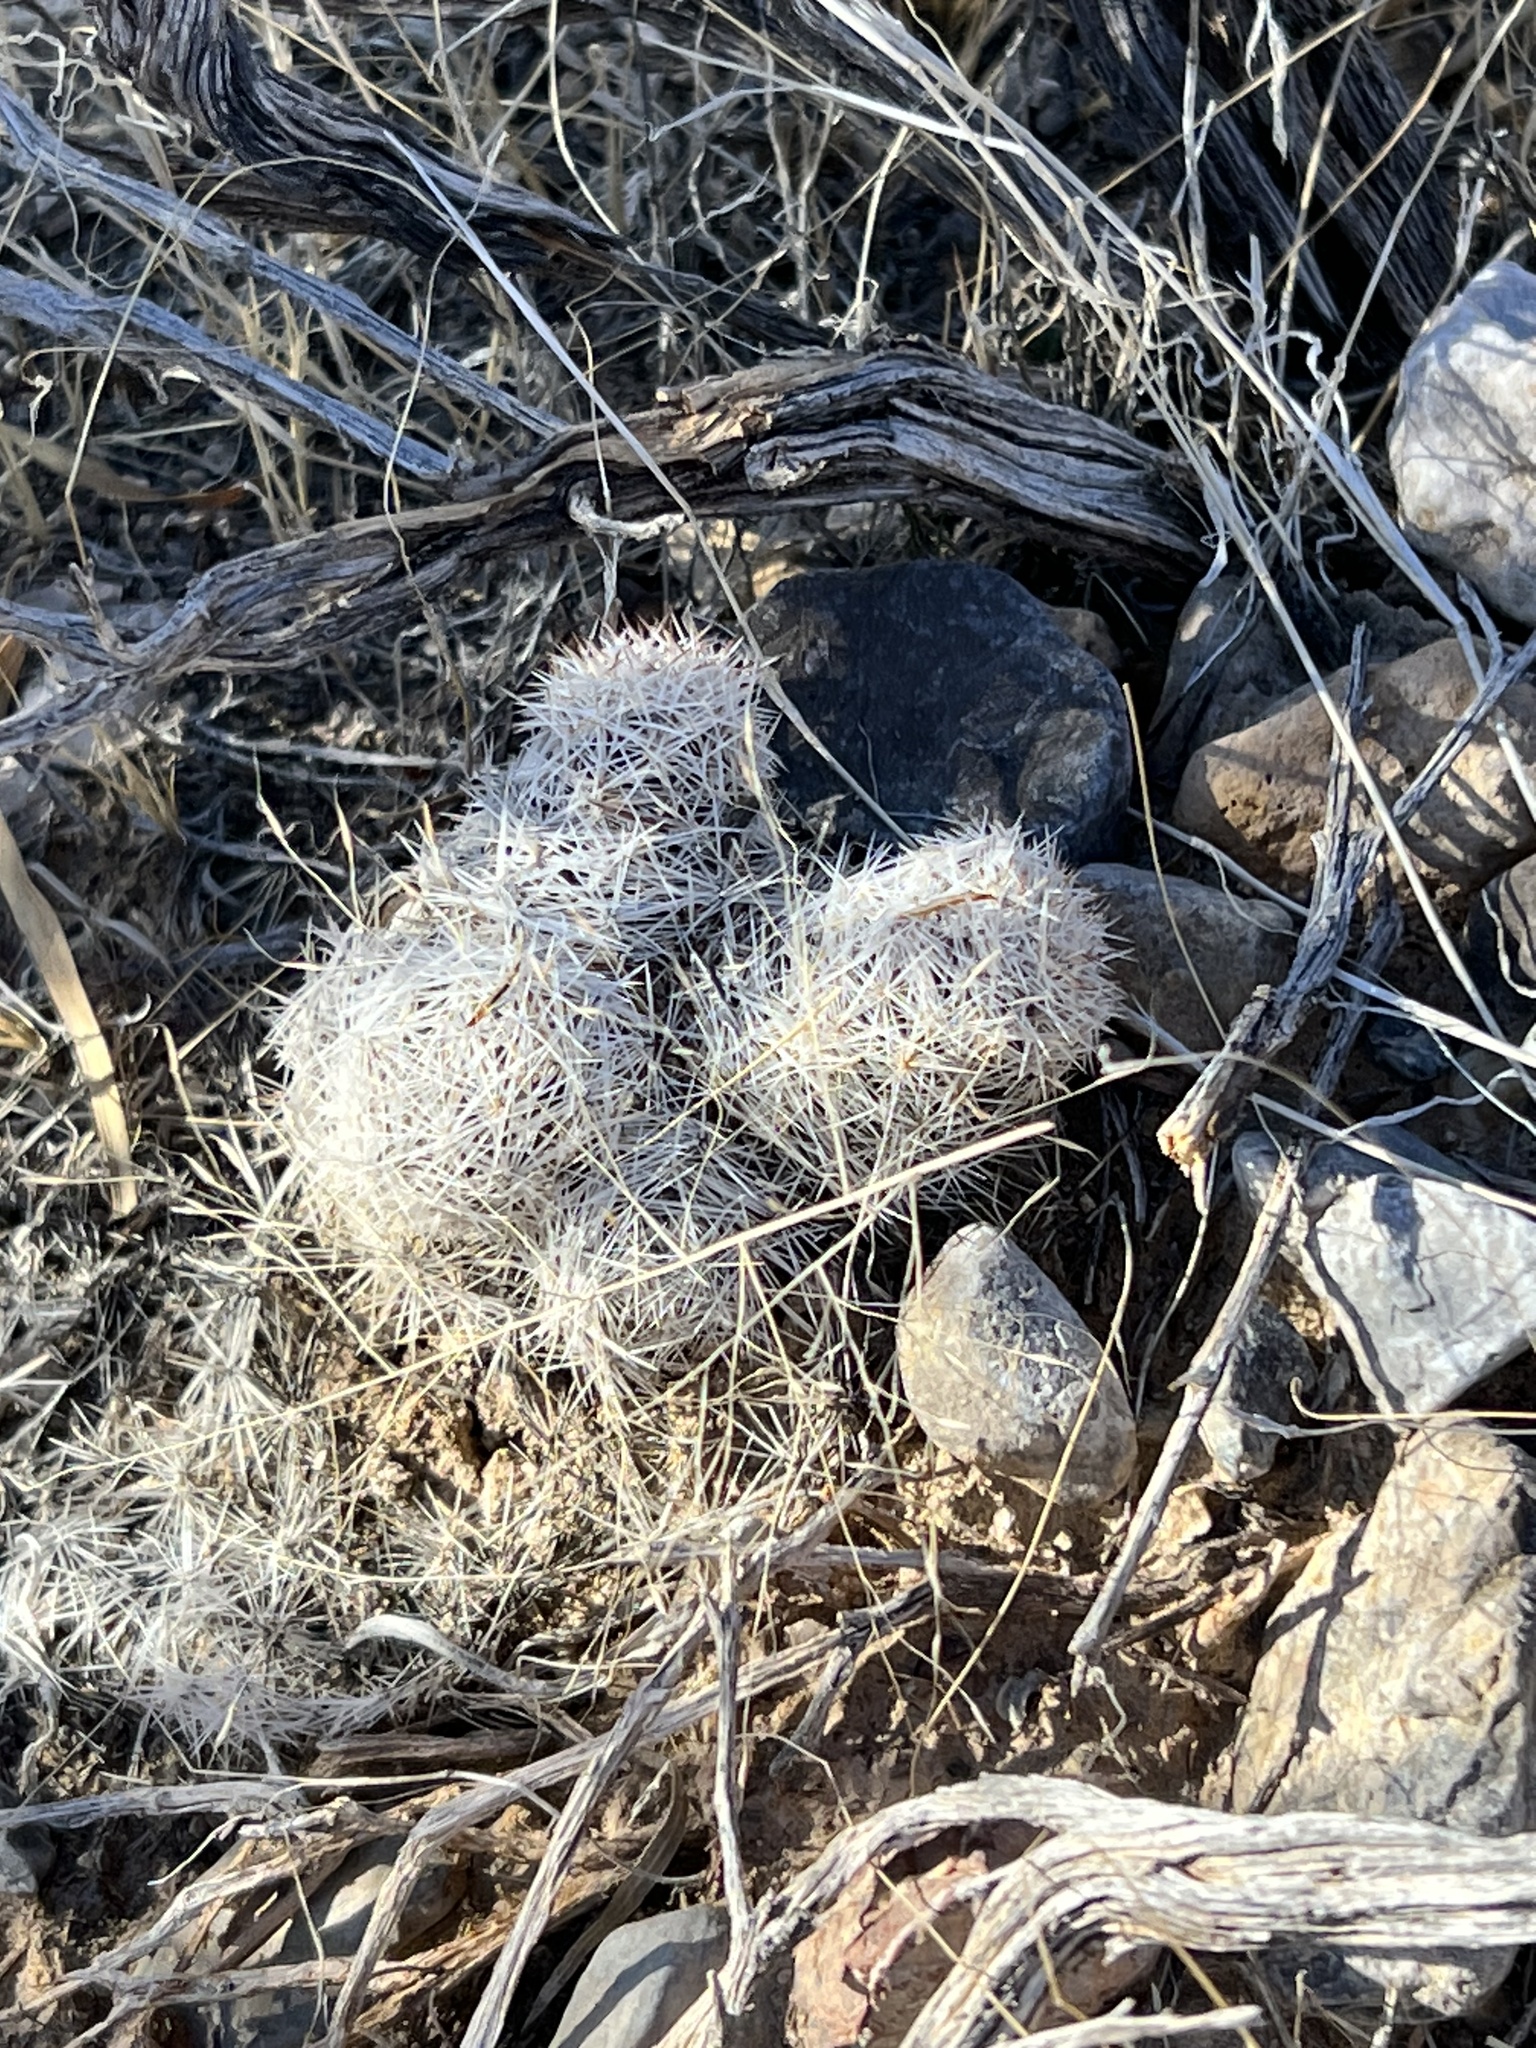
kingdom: Plantae
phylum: Tracheophyta
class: Magnoliopsida
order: Caryophyllales
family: Cactaceae
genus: Pelecyphora
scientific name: Pelecyphora dasyacantha
